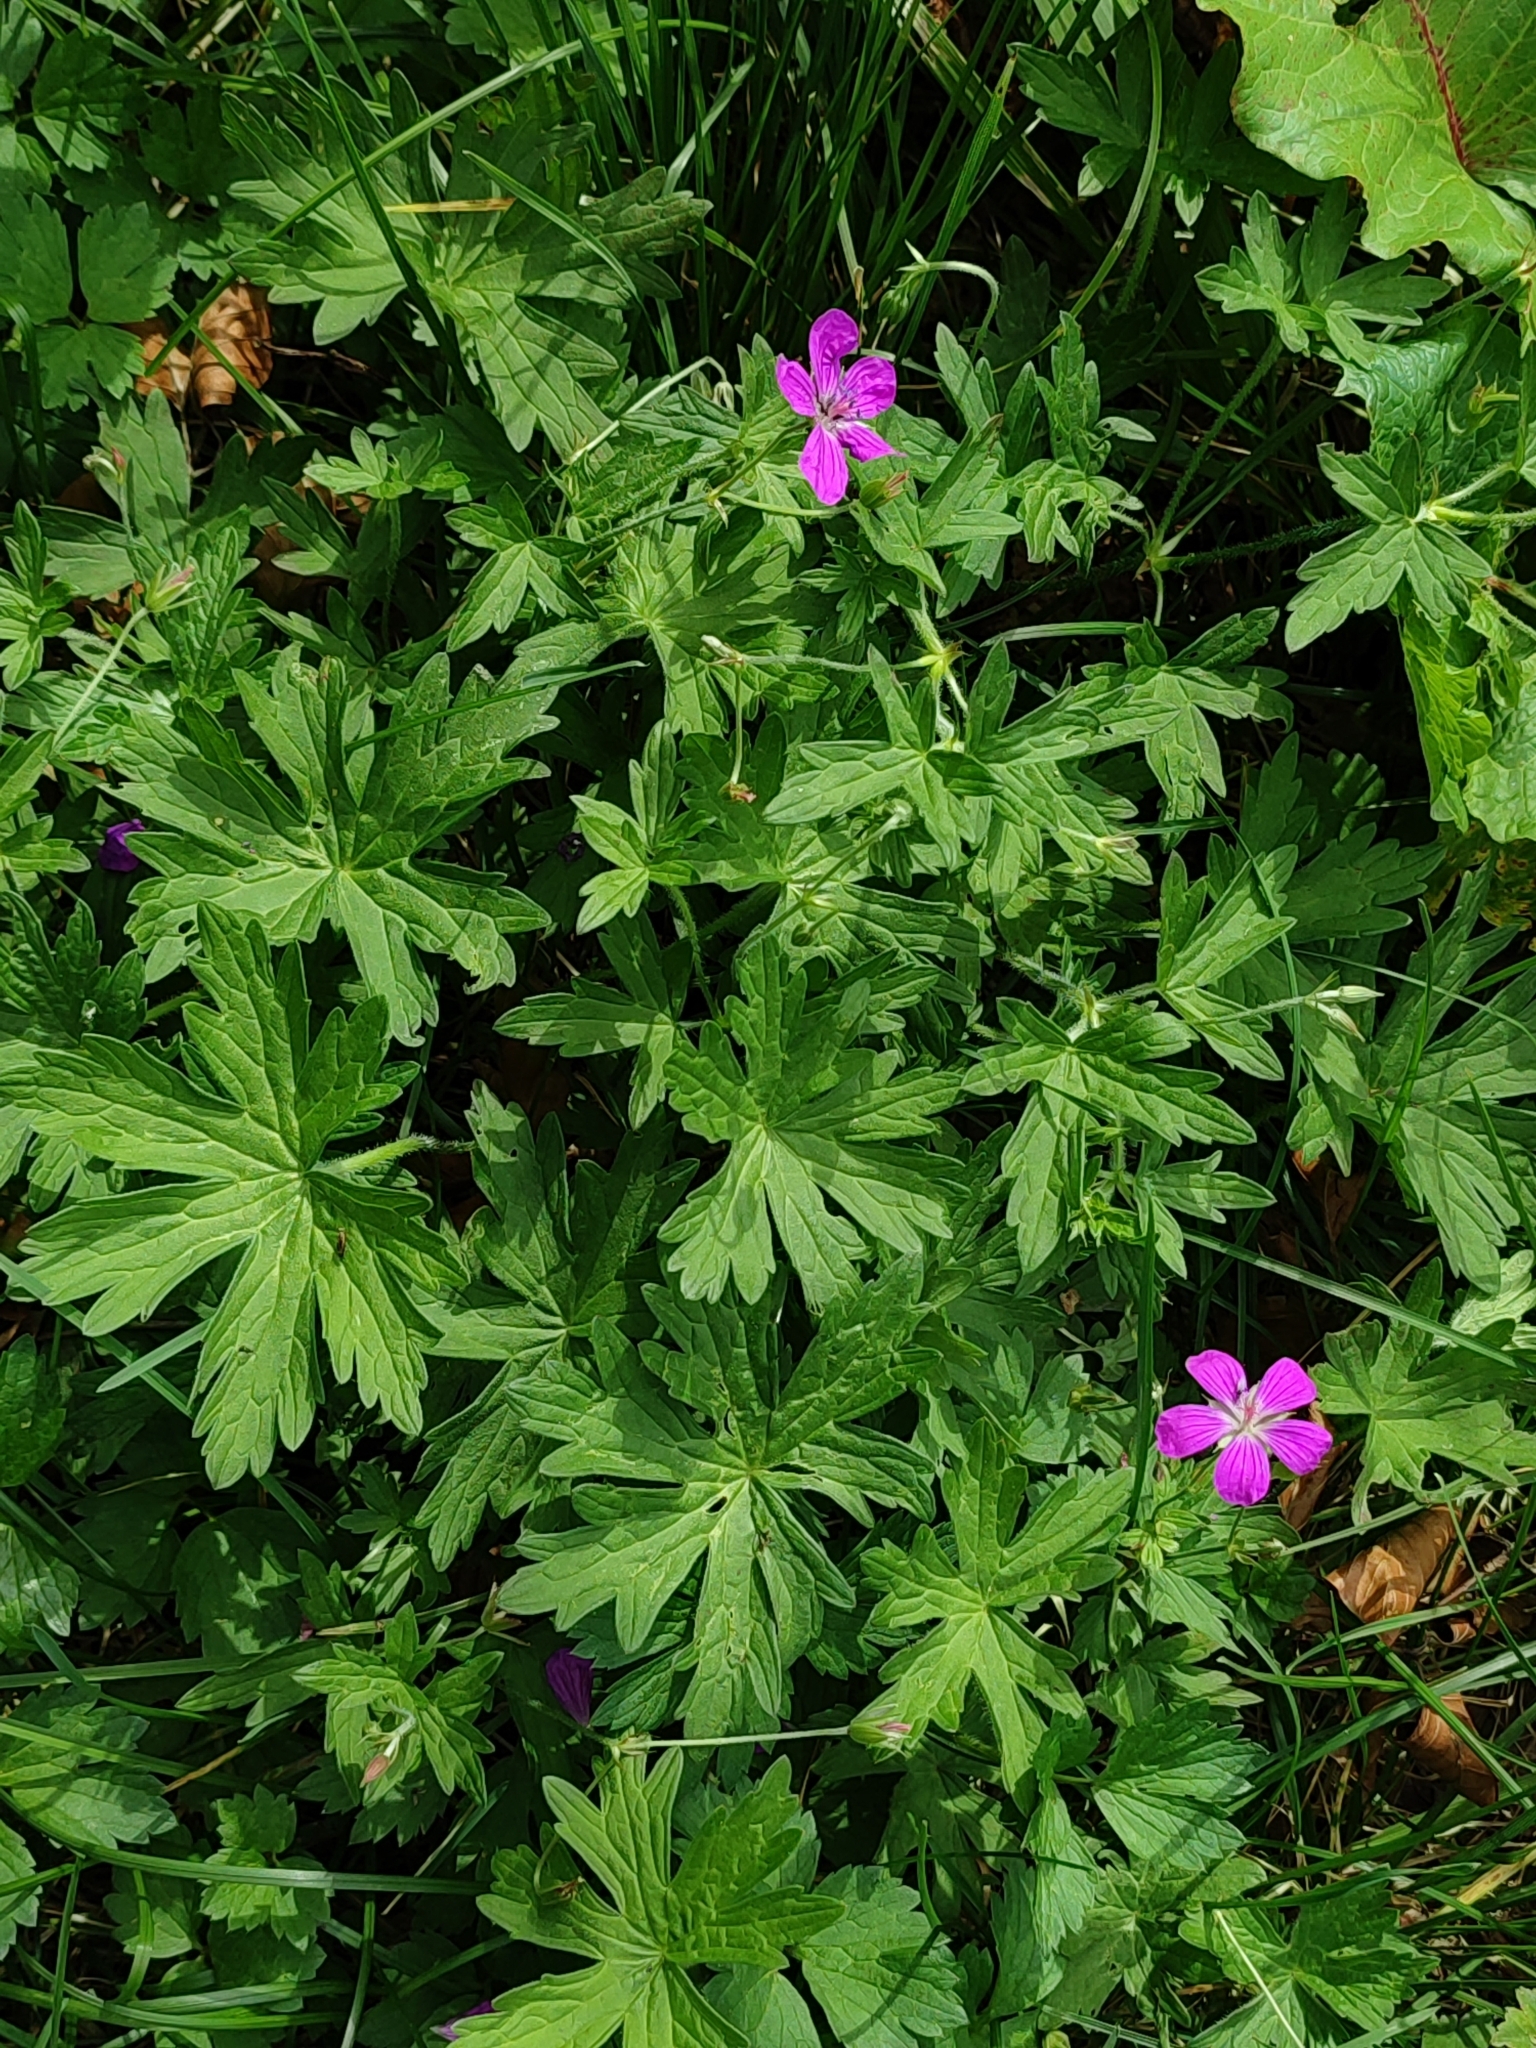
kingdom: Plantae
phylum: Tracheophyta
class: Magnoliopsida
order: Geraniales
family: Geraniaceae
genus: Geranium
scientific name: Geranium palustre
